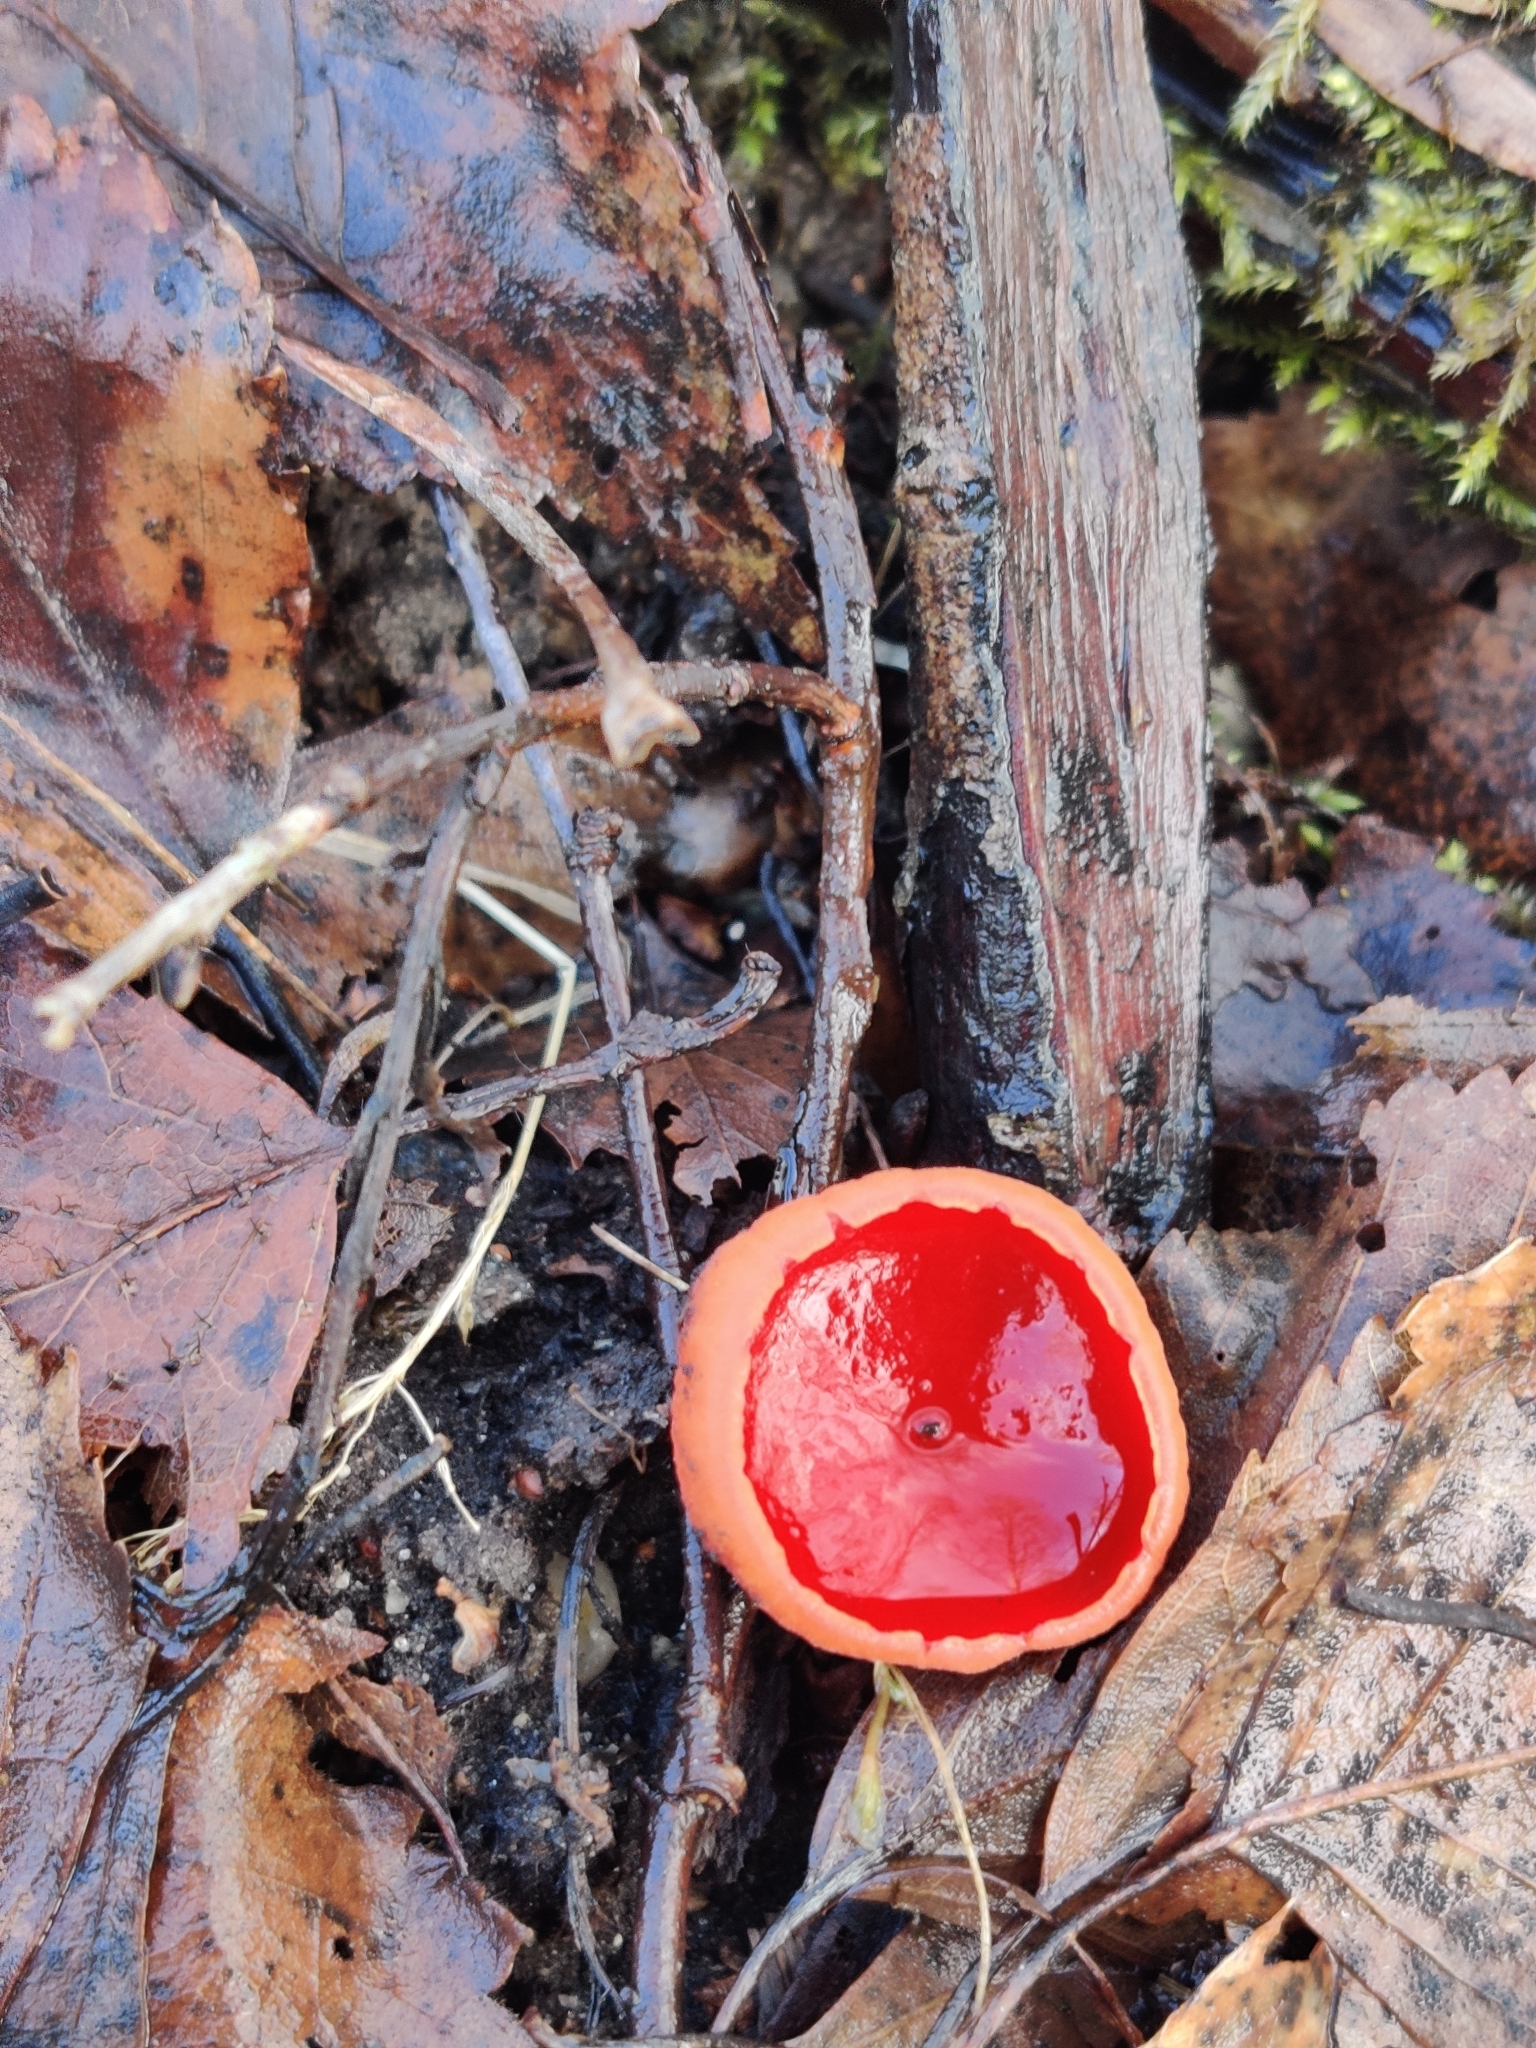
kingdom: Fungi
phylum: Ascomycota
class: Pezizomycetes
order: Pezizales
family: Sarcoscyphaceae
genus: Sarcoscypha
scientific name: Sarcoscypha austriaca
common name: Scarlet elfcup
